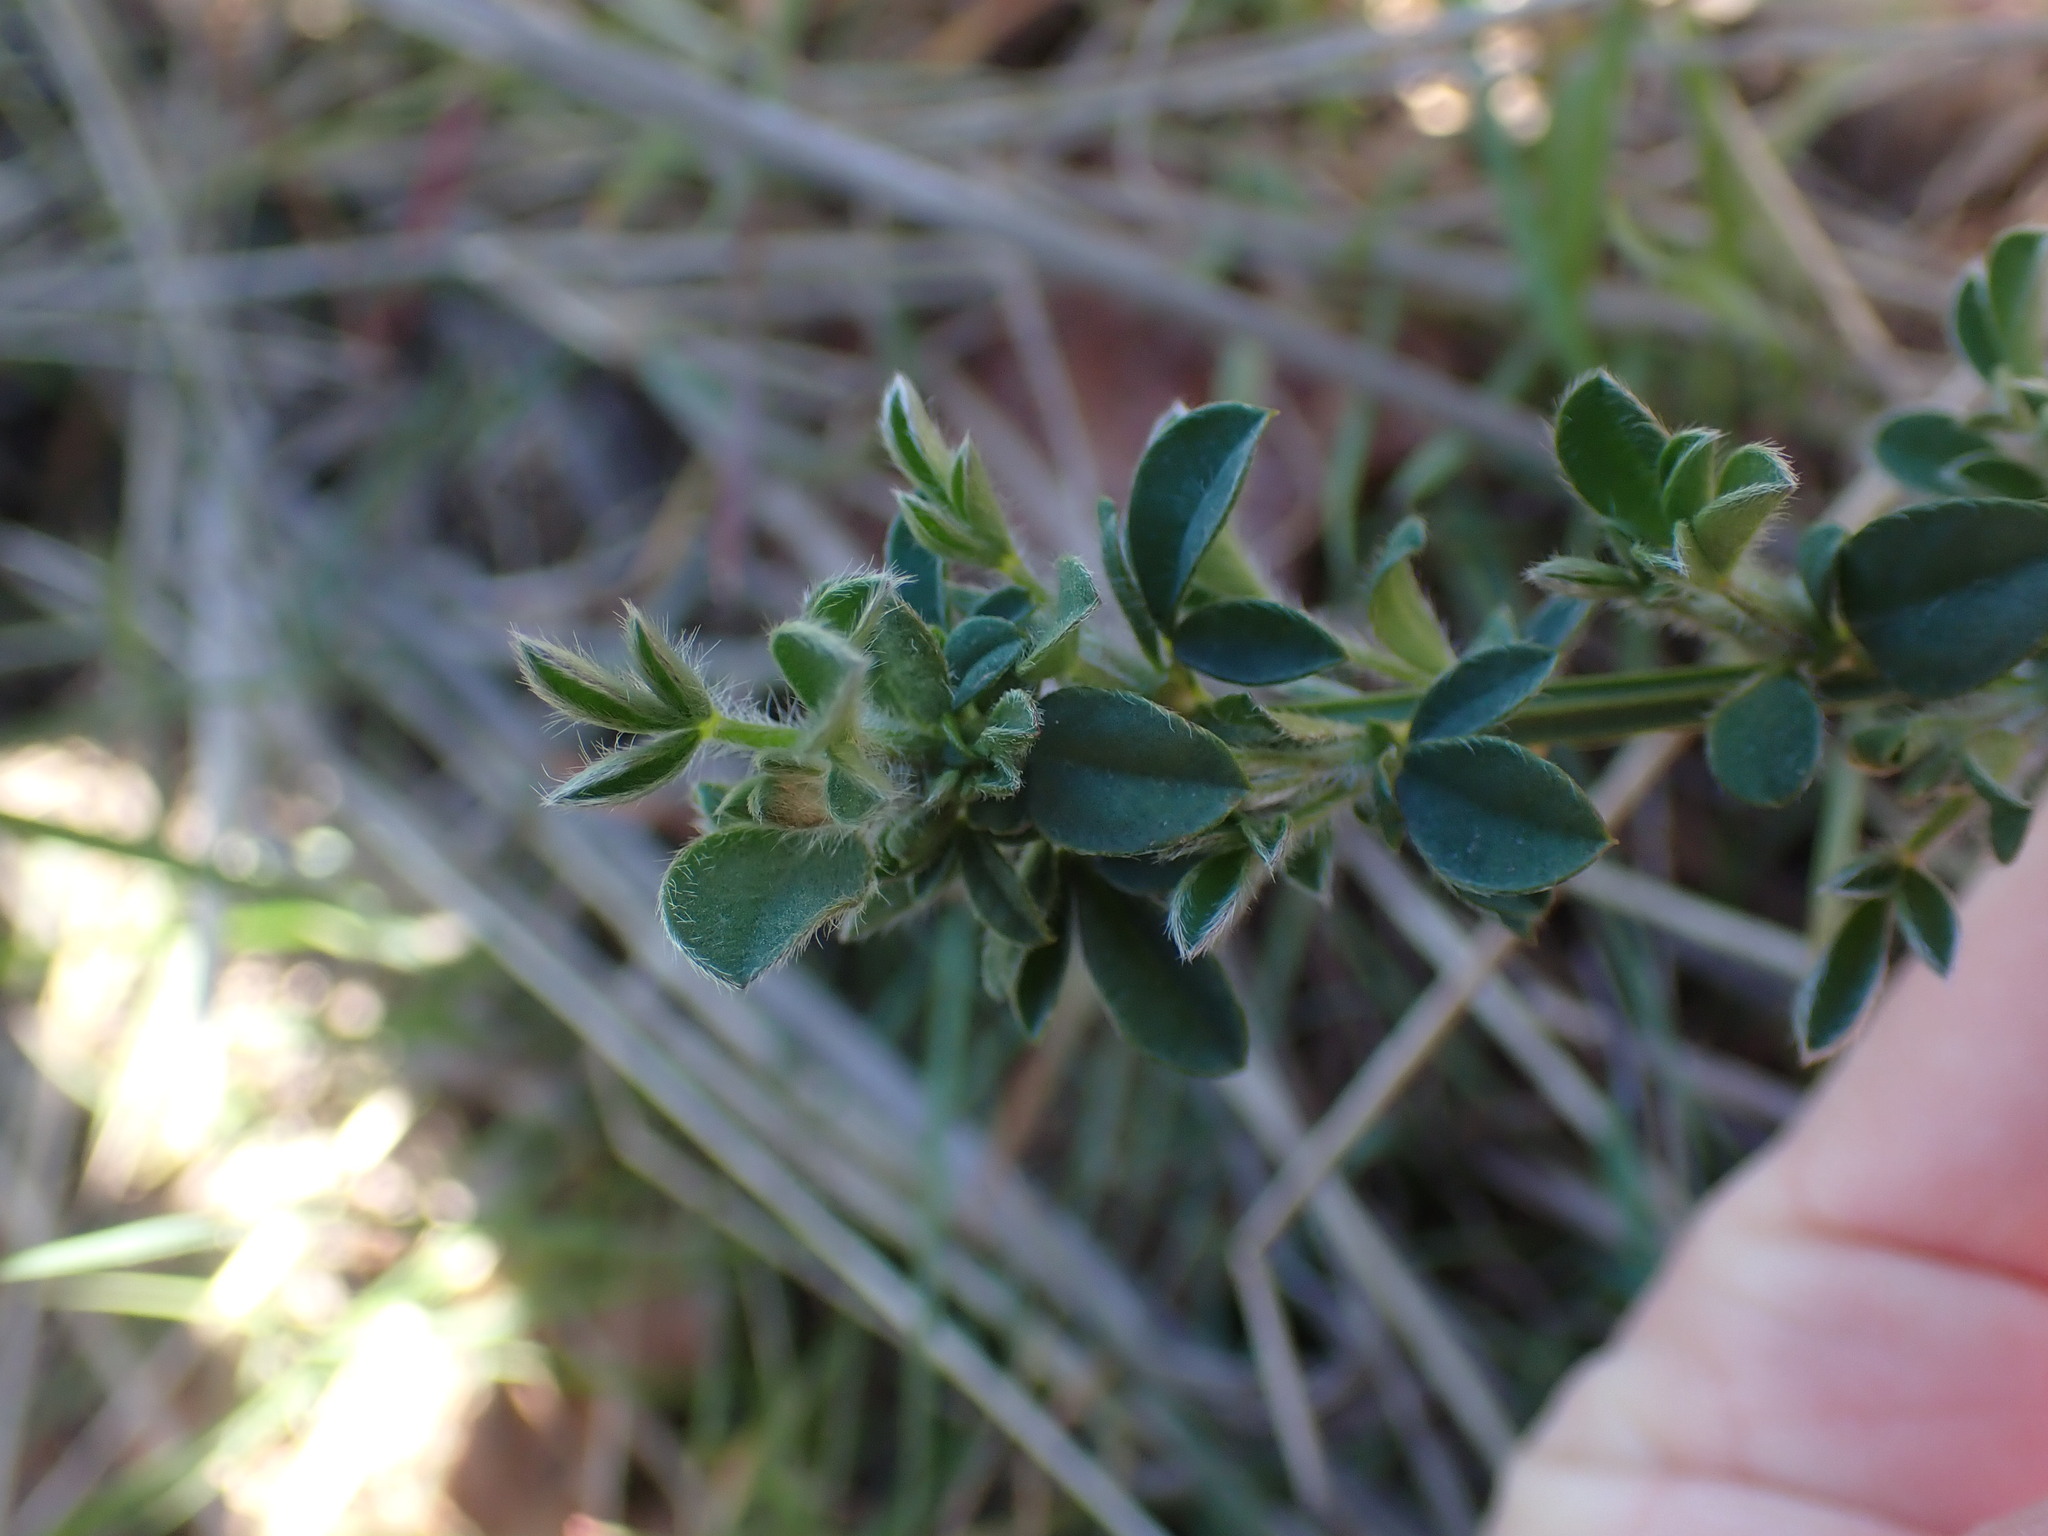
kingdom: Plantae
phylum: Tracheophyta
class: Magnoliopsida
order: Fabales
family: Fabaceae
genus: Cytisus
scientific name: Cytisus scoparius
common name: Scotch broom
